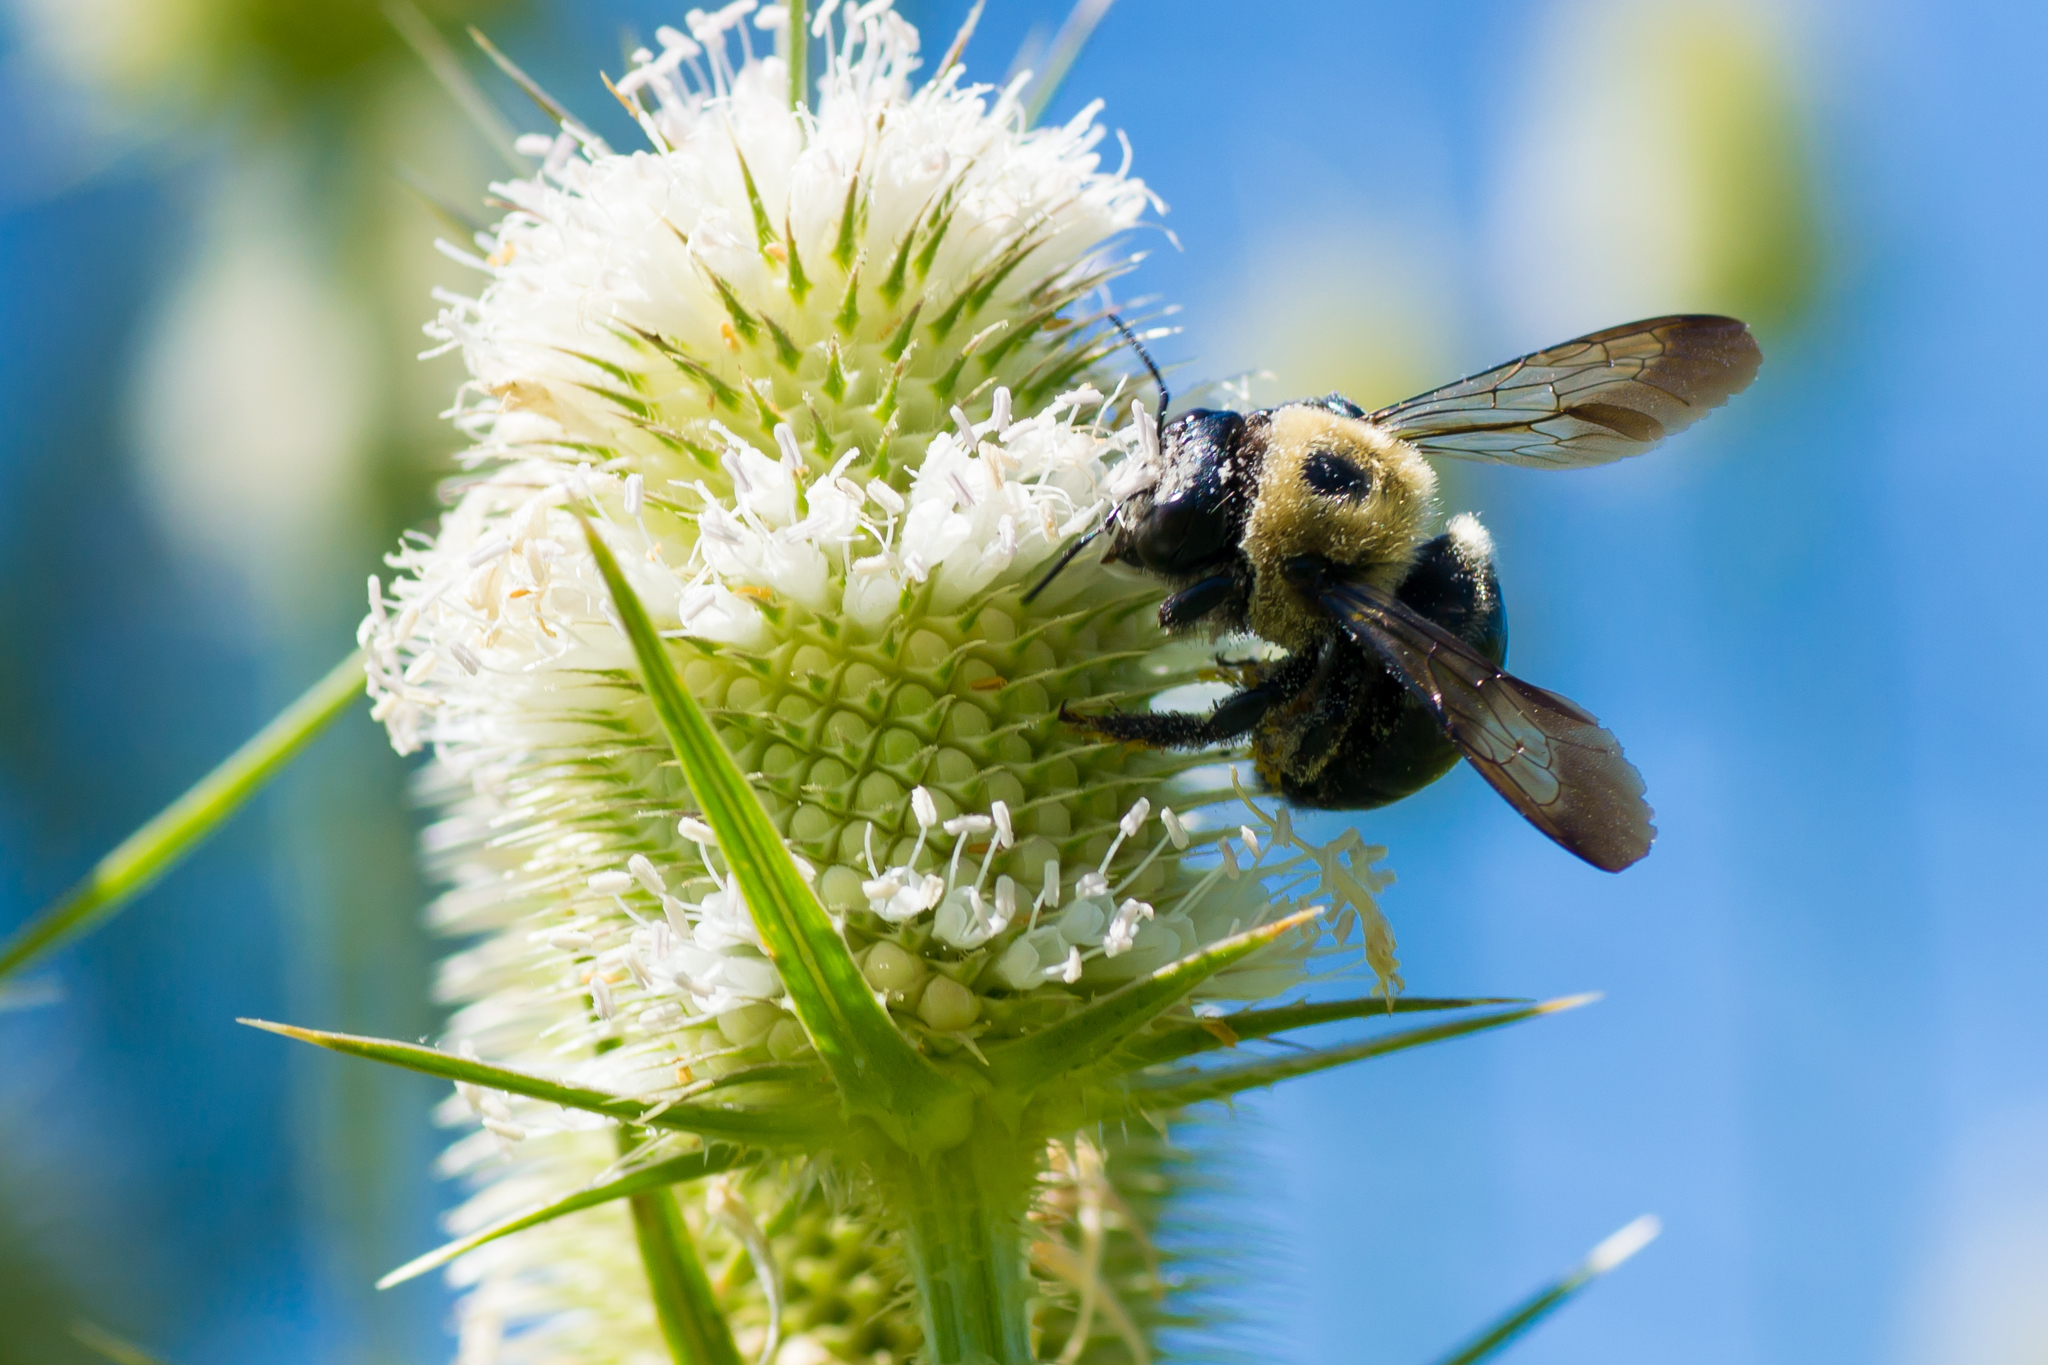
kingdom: Animalia
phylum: Arthropoda
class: Insecta
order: Hymenoptera
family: Apidae
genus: Xylocopa
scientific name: Xylocopa virginica
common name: Carpenter bee
